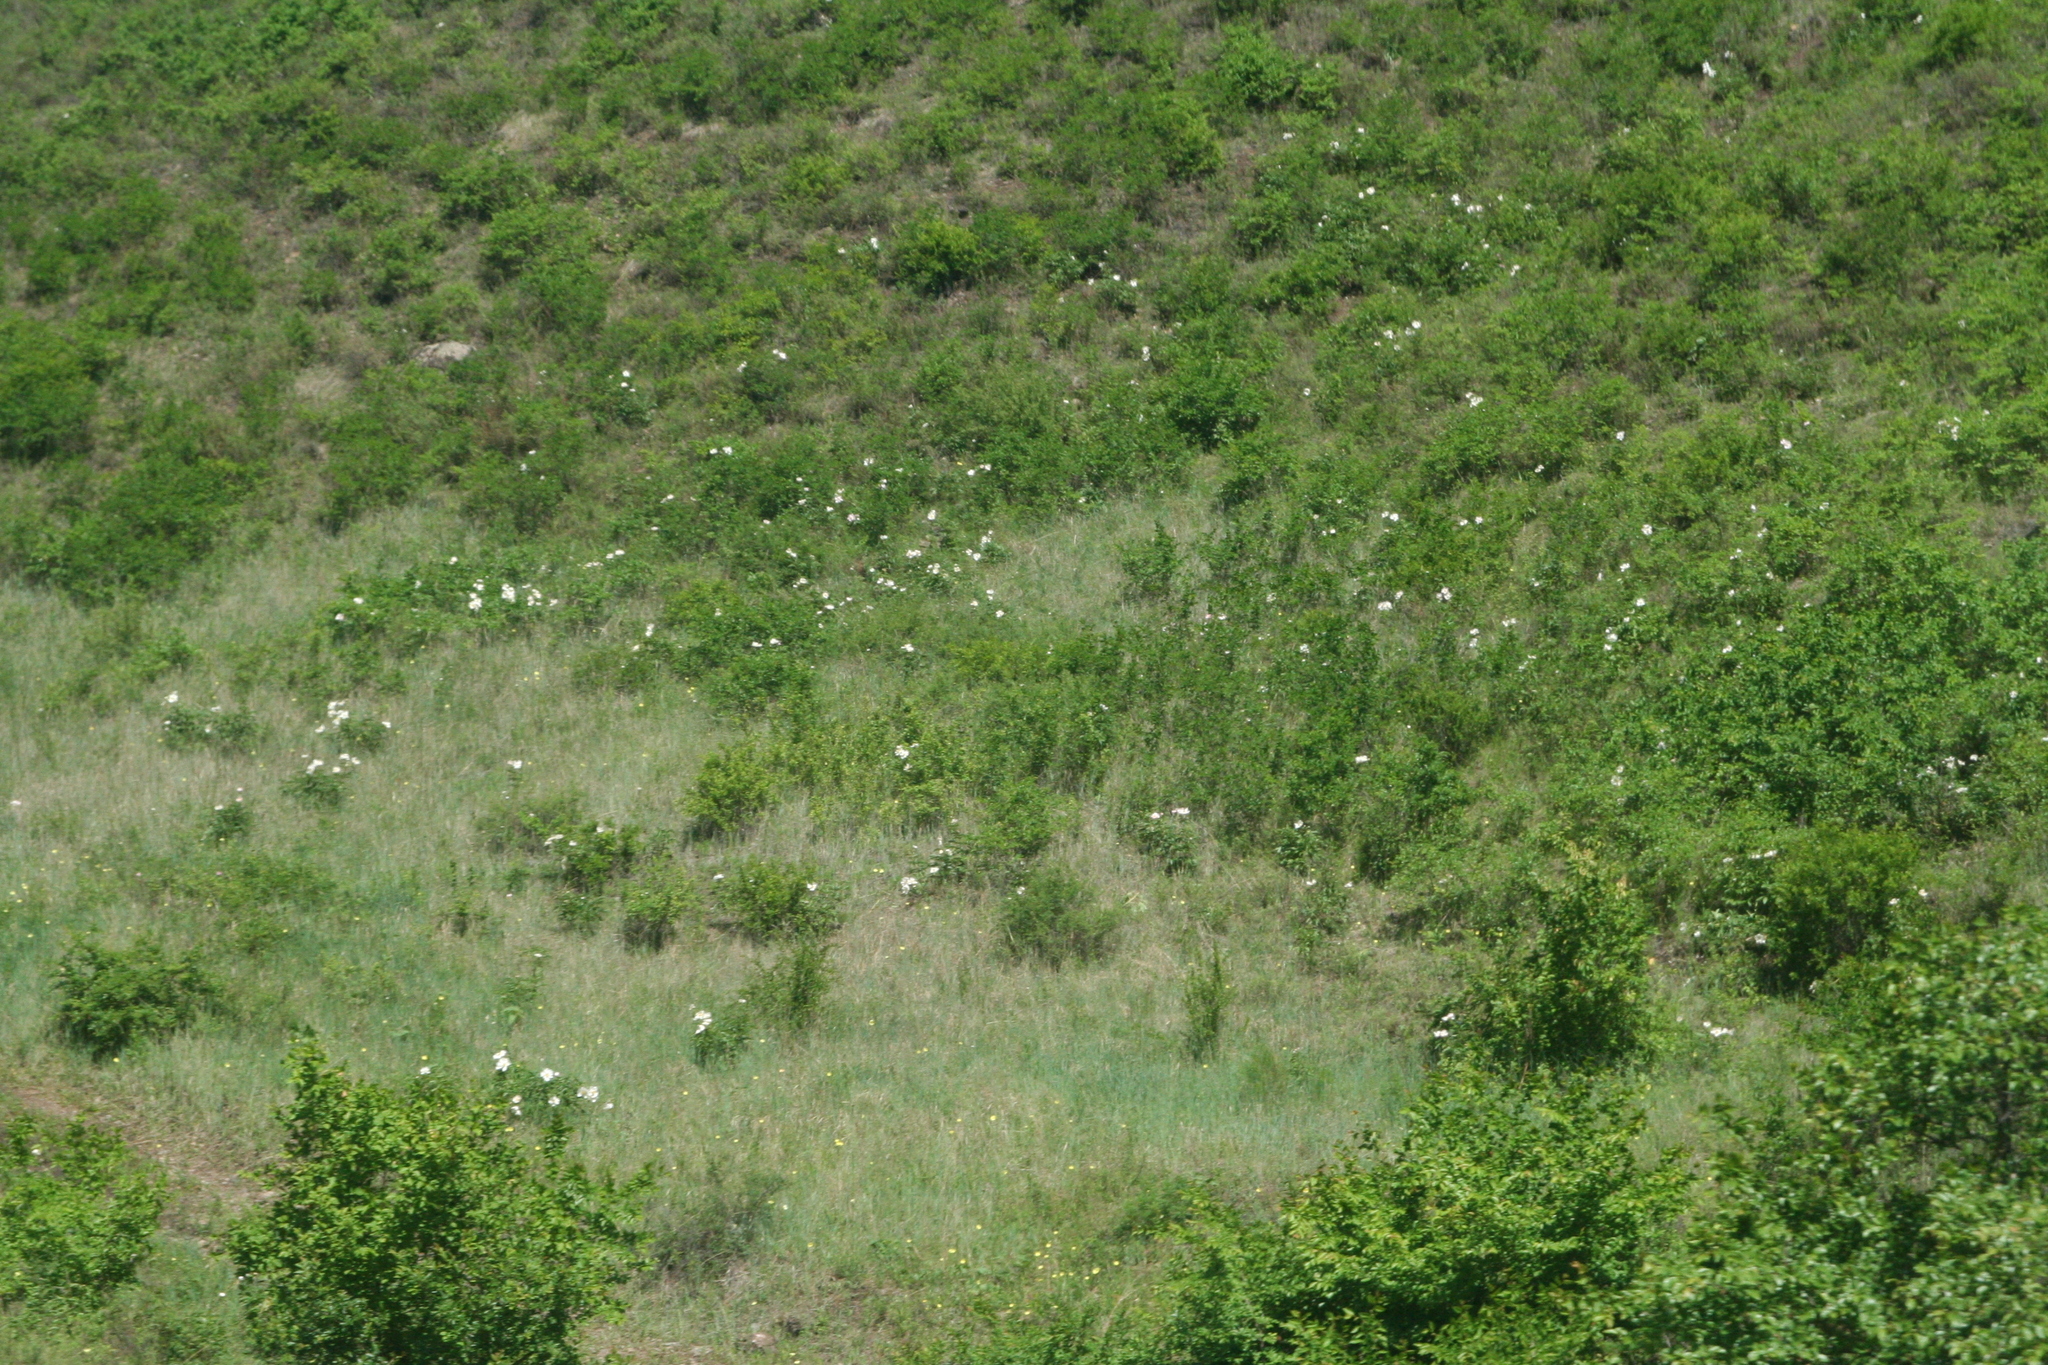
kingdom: Plantae
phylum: Tracheophyta
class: Magnoliopsida
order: Saxifragales
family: Paeoniaceae
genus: Paeonia
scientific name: Paeonia lactiflora
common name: Chinese peony
